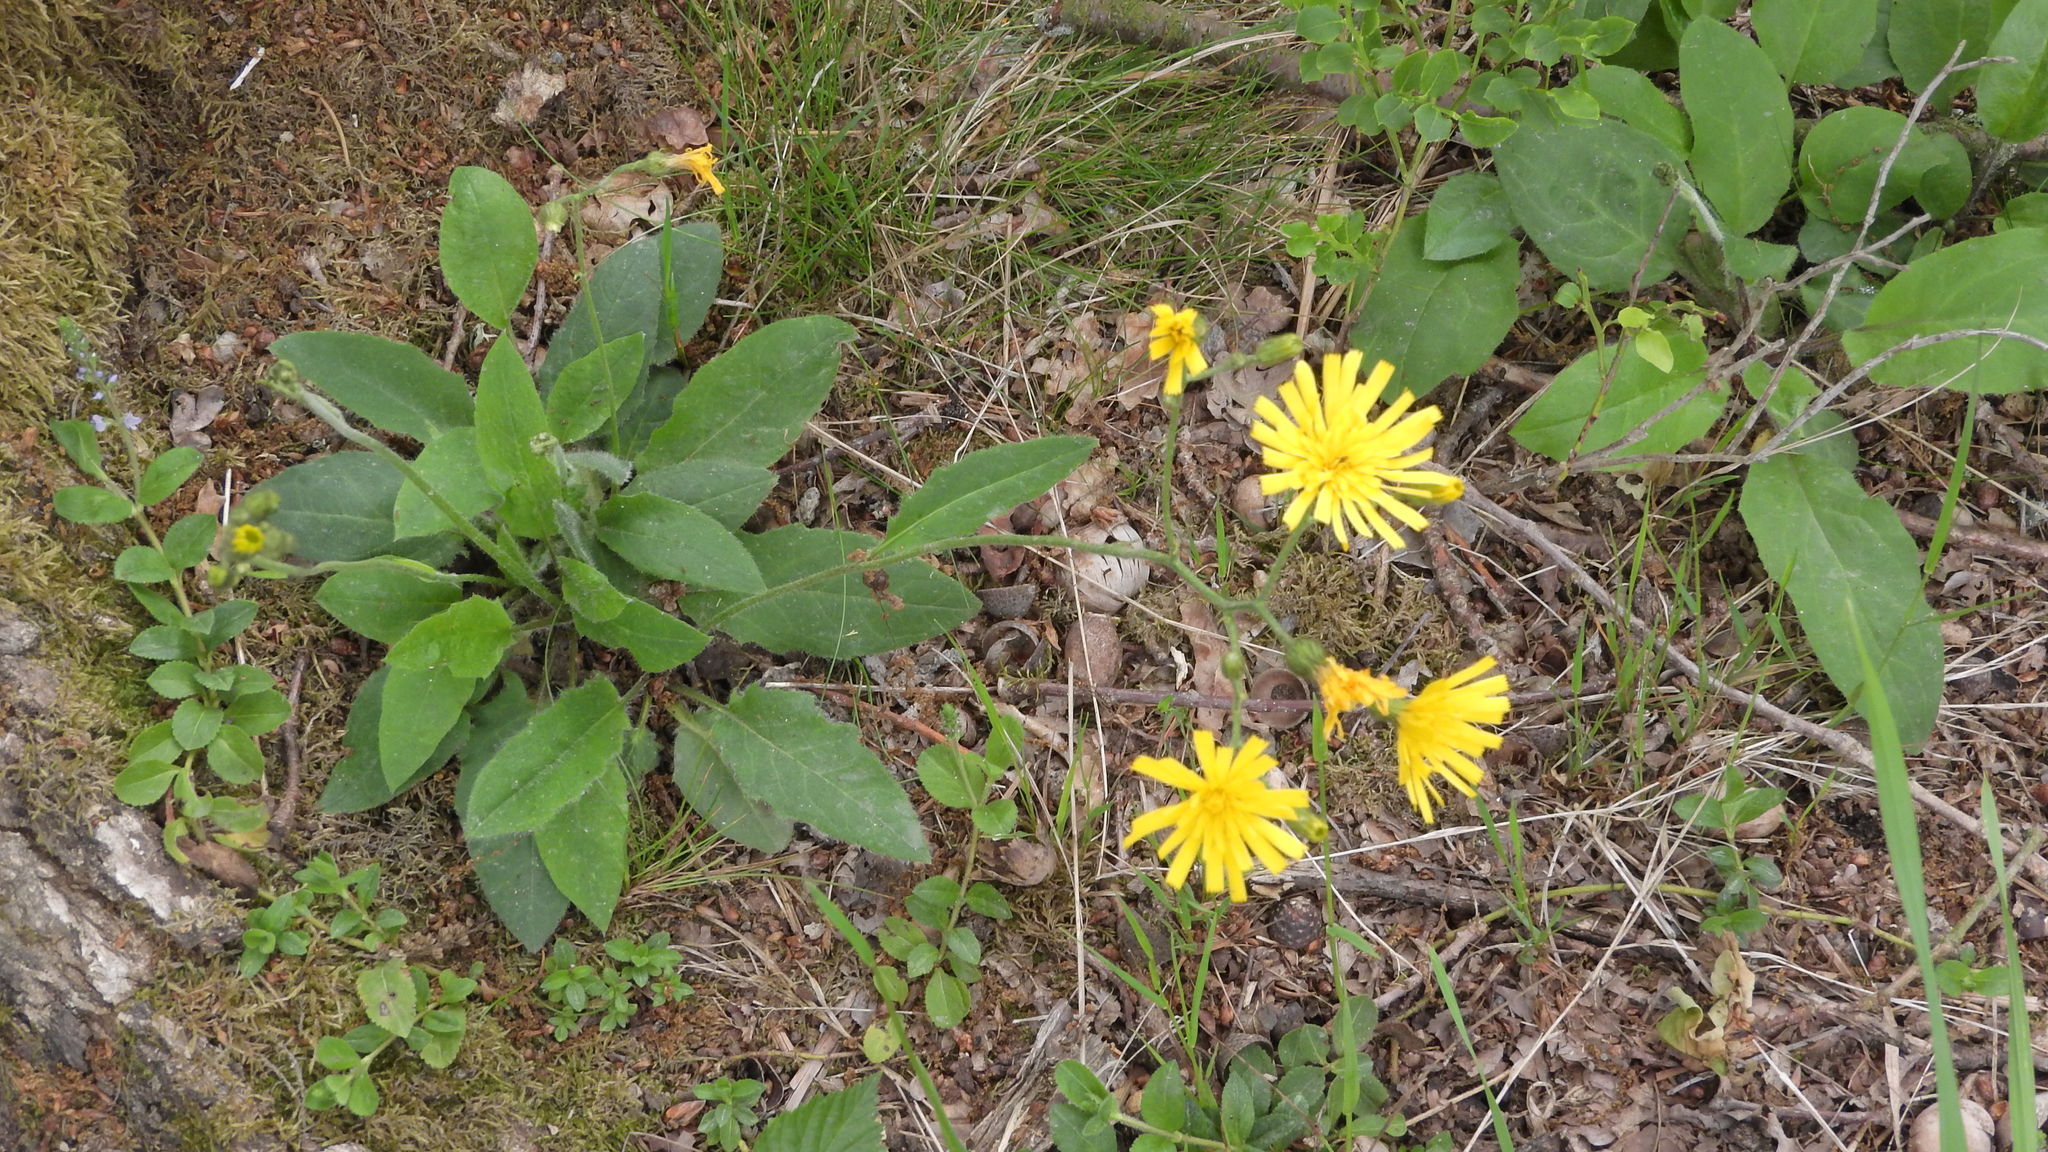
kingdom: Plantae
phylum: Tracheophyta
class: Magnoliopsida
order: Asterales
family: Asteraceae
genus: Hieracium
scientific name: Hieracium murorum
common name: Wall hawkweed
